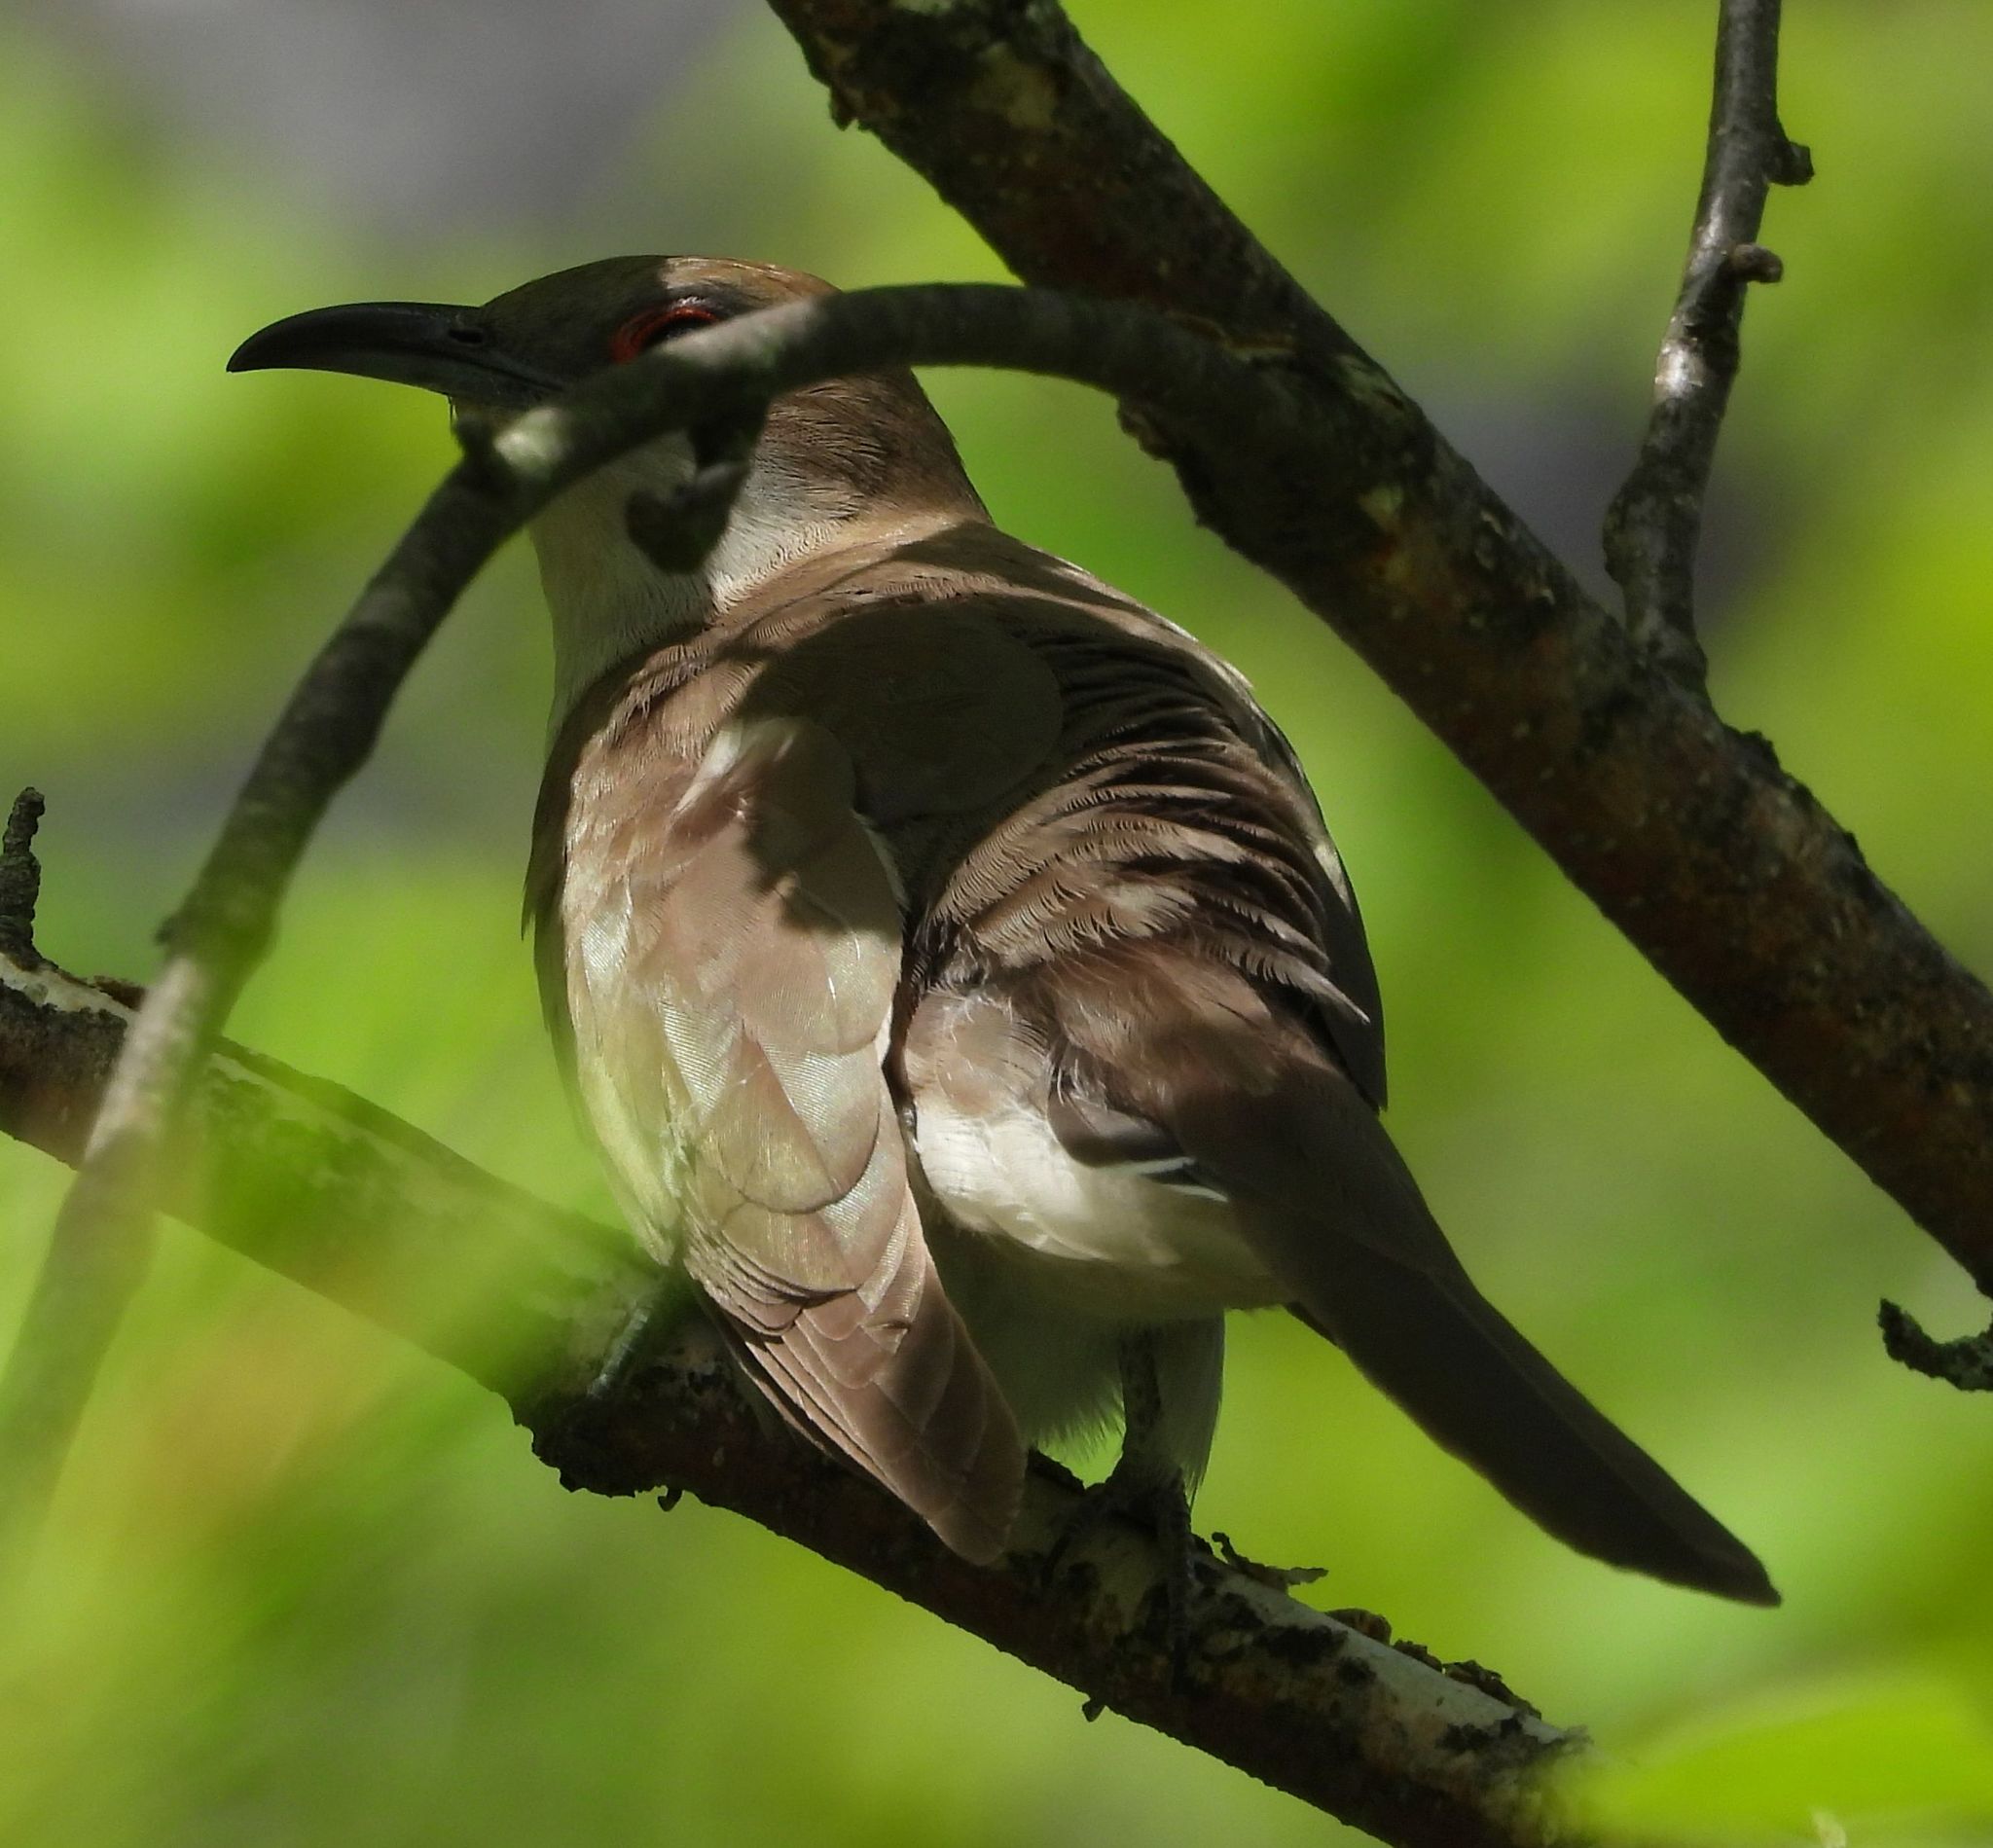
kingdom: Animalia
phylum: Chordata
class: Aves
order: Cuculiformes
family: Cuculidae
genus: Coccyzus
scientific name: Coccyzus erythropthalmus
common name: Black-billed cuckoo
